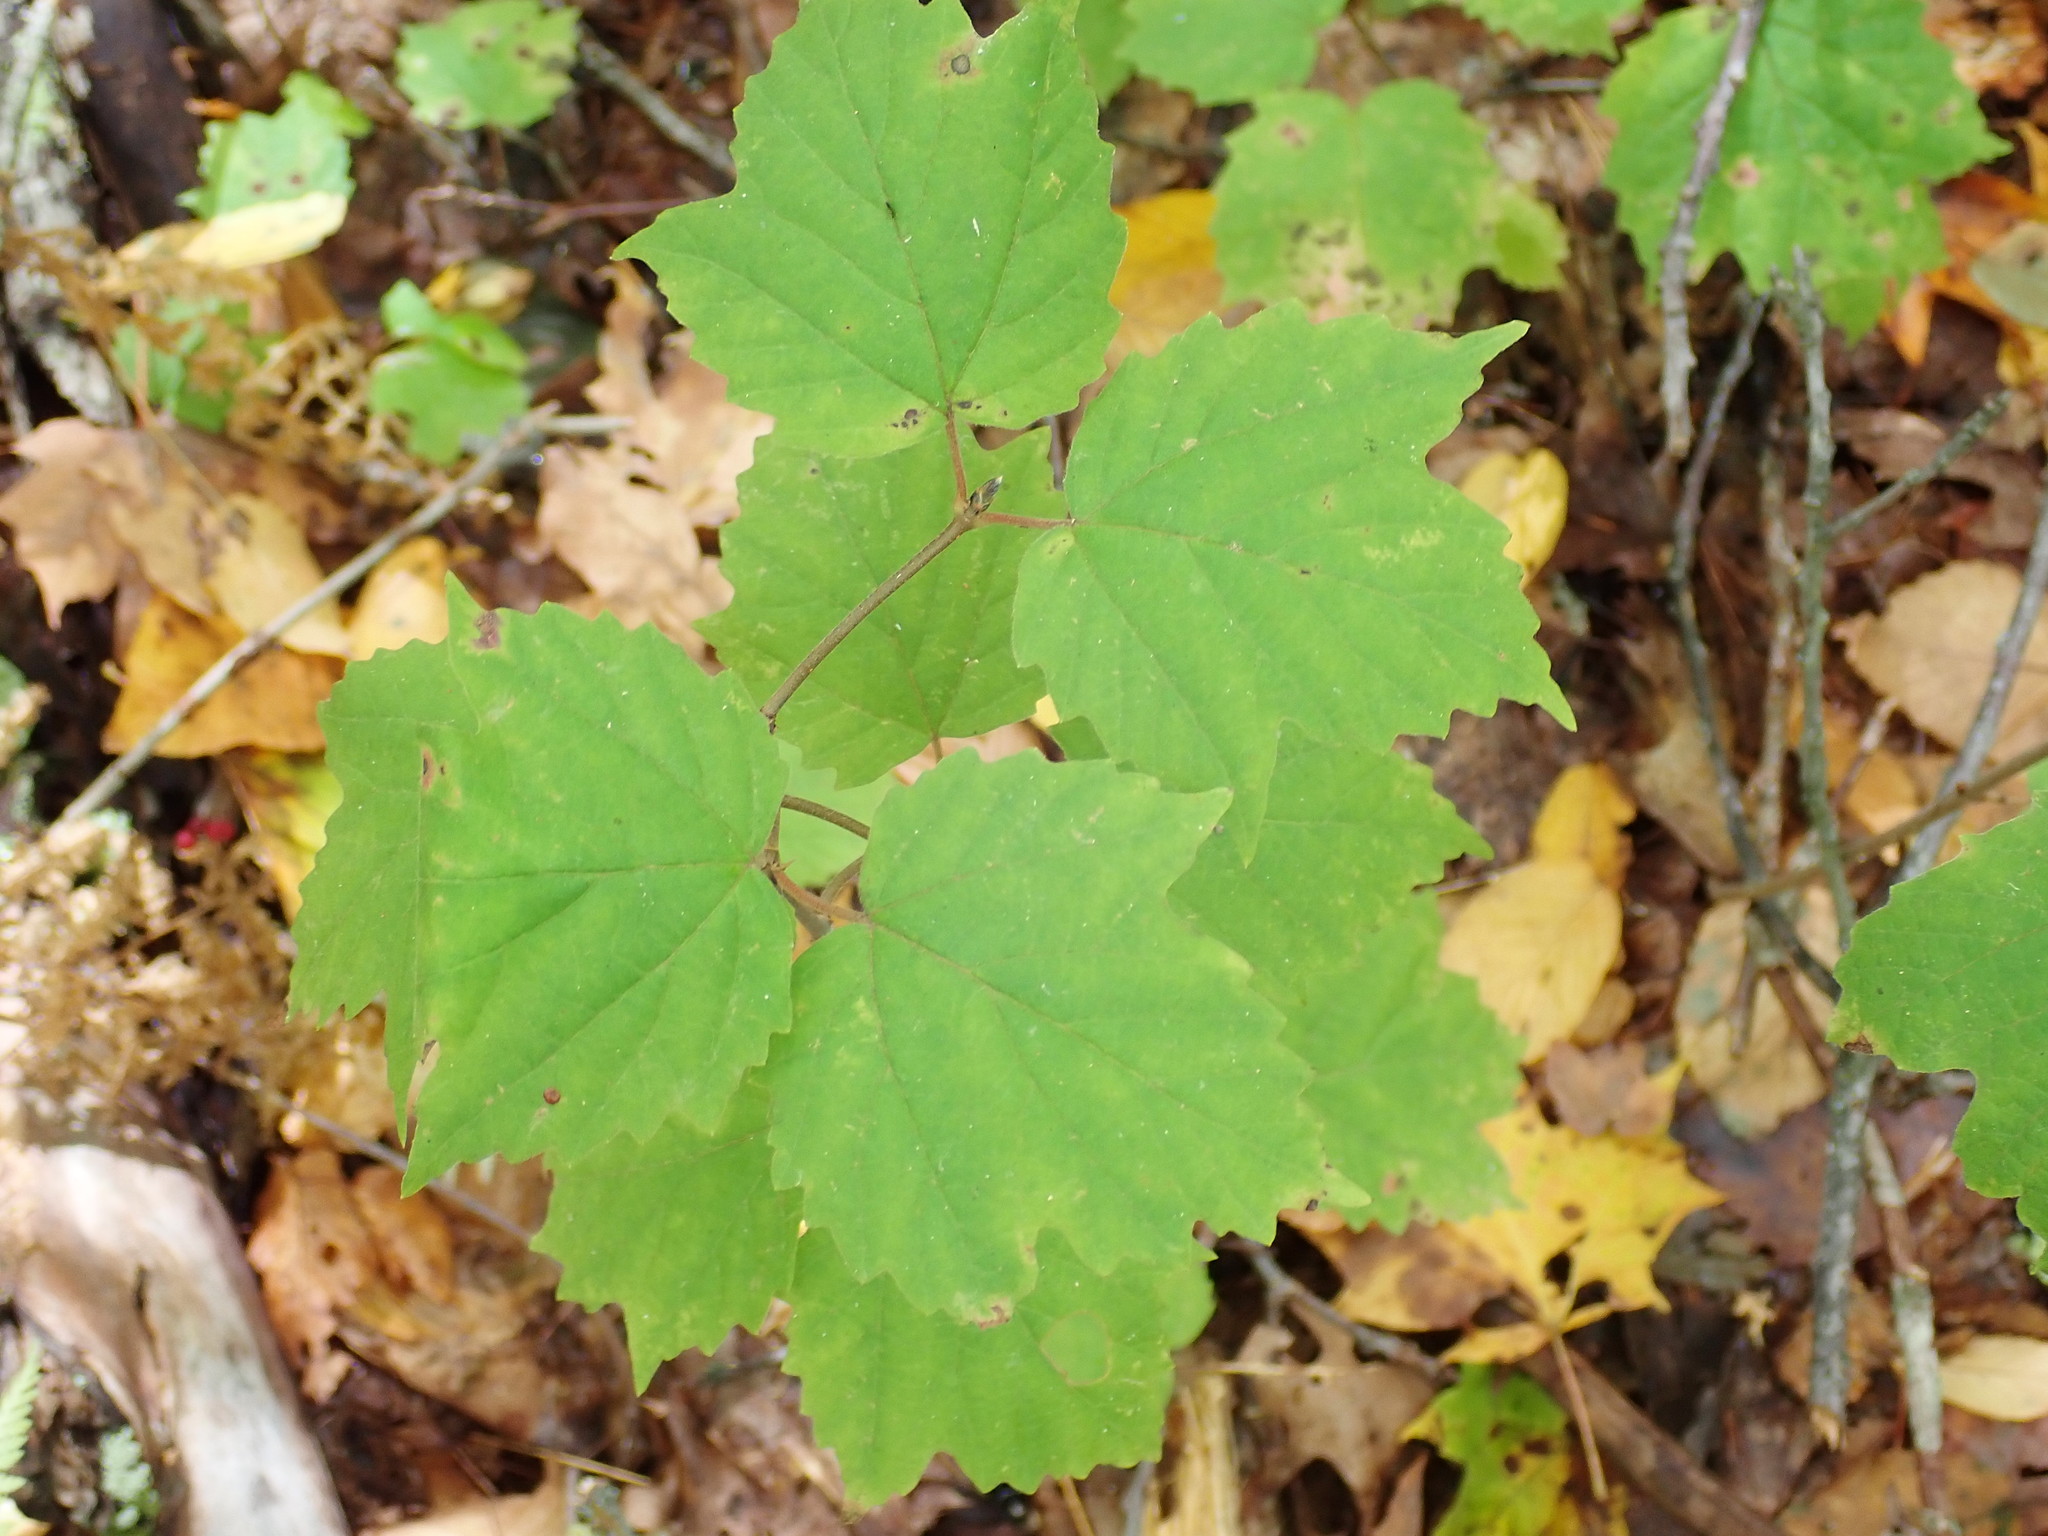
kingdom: Plantae
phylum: Tracheophyta
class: Magnoliopsida
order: Dipsacales
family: Viburnaceae
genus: Viburnum
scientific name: Viburnum acerifolium
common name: Dockmackie
